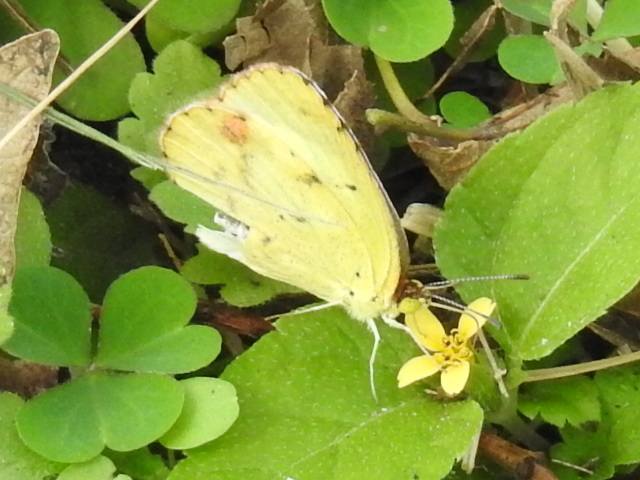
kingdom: Animalia
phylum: Arthropoda
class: Insecta
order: Lepidoptera
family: Pieridae
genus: Pyrisitia
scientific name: Pyrisitia lisa
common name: Little yellow
